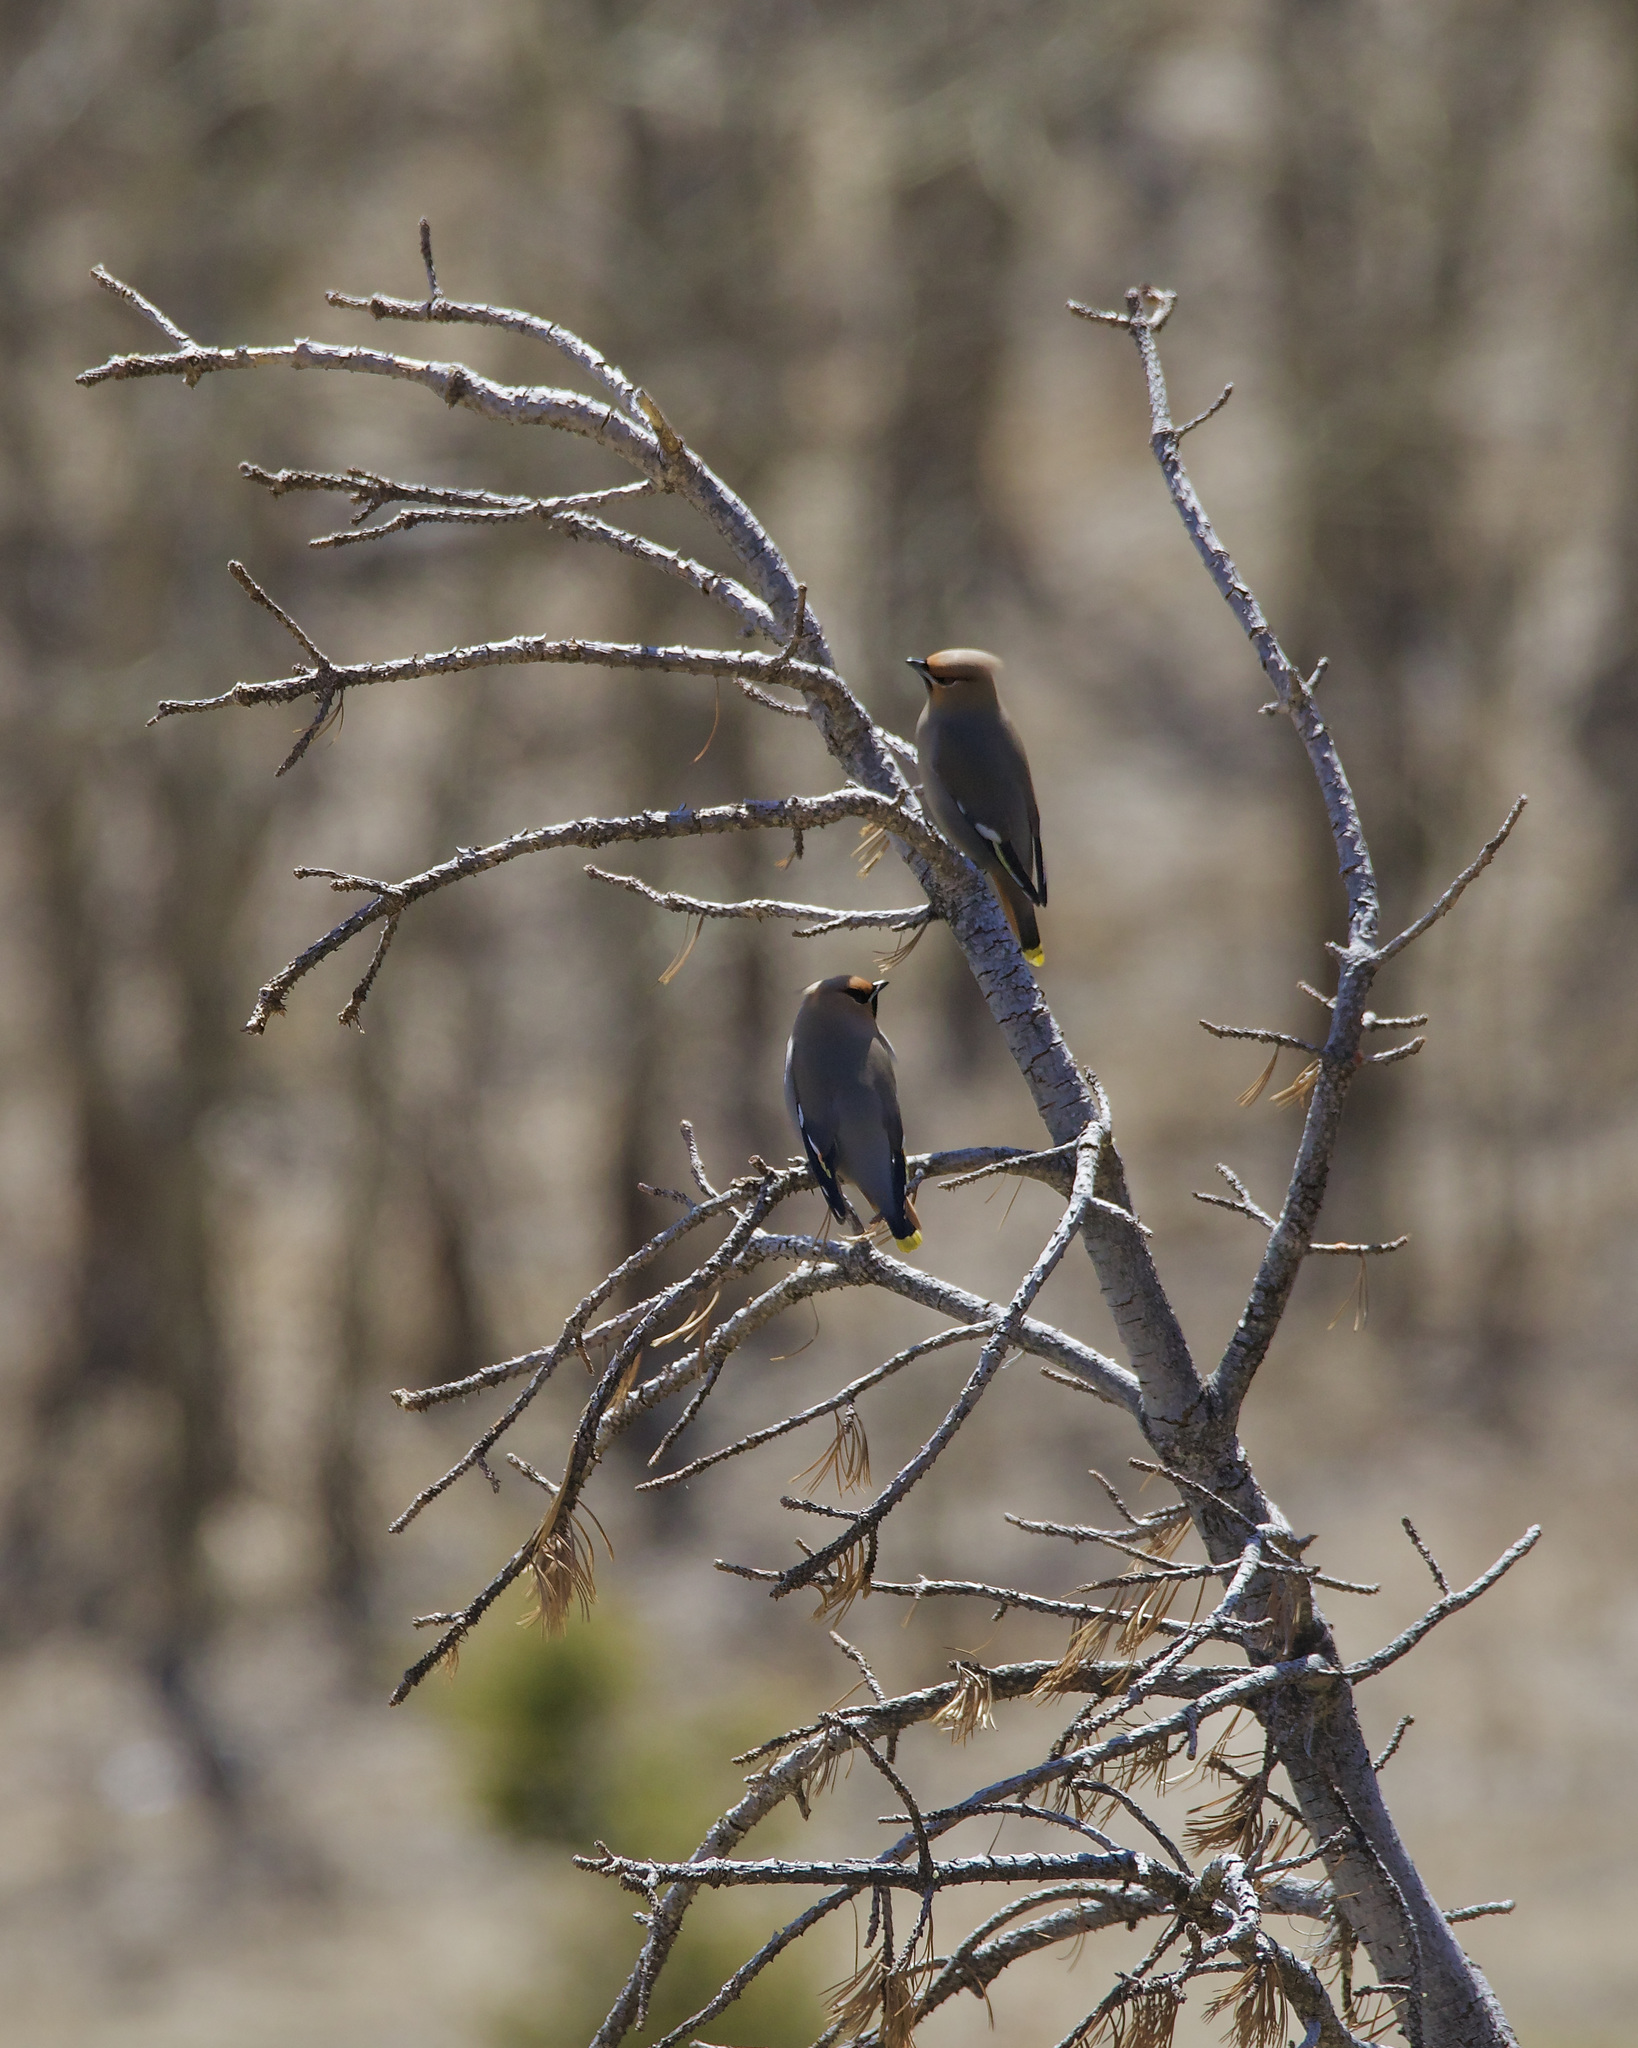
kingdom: Animalia
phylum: Chordata
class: Aves
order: Passeriformes
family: Bombycillidae
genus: Bombycilla
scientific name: Bombycilla garrulus
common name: Bohemian waxwing
